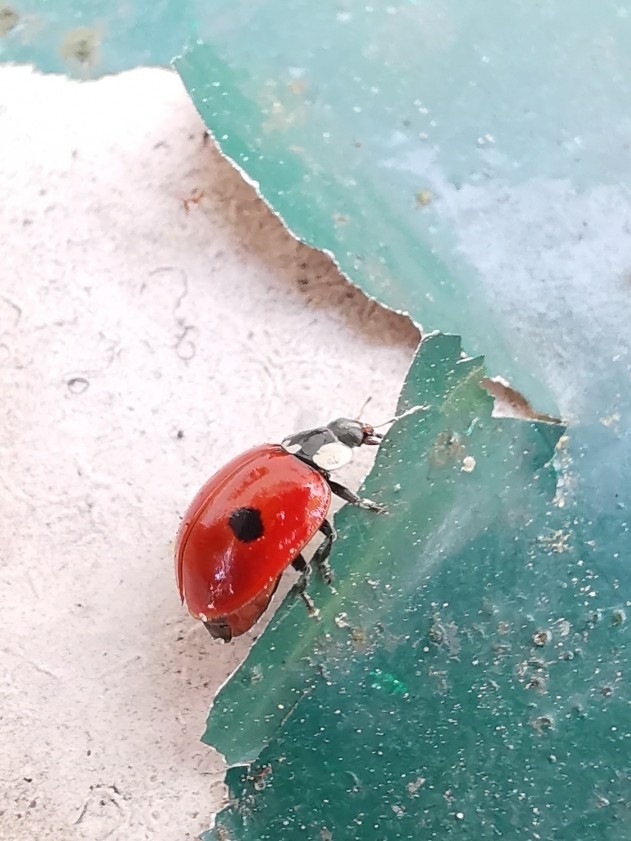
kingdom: Animalia
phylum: Arthropoda
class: Insecta
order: Coleoptera
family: Coccinellidae
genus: Adalia
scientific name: Adalia bipunctata
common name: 2-spot ladybird
